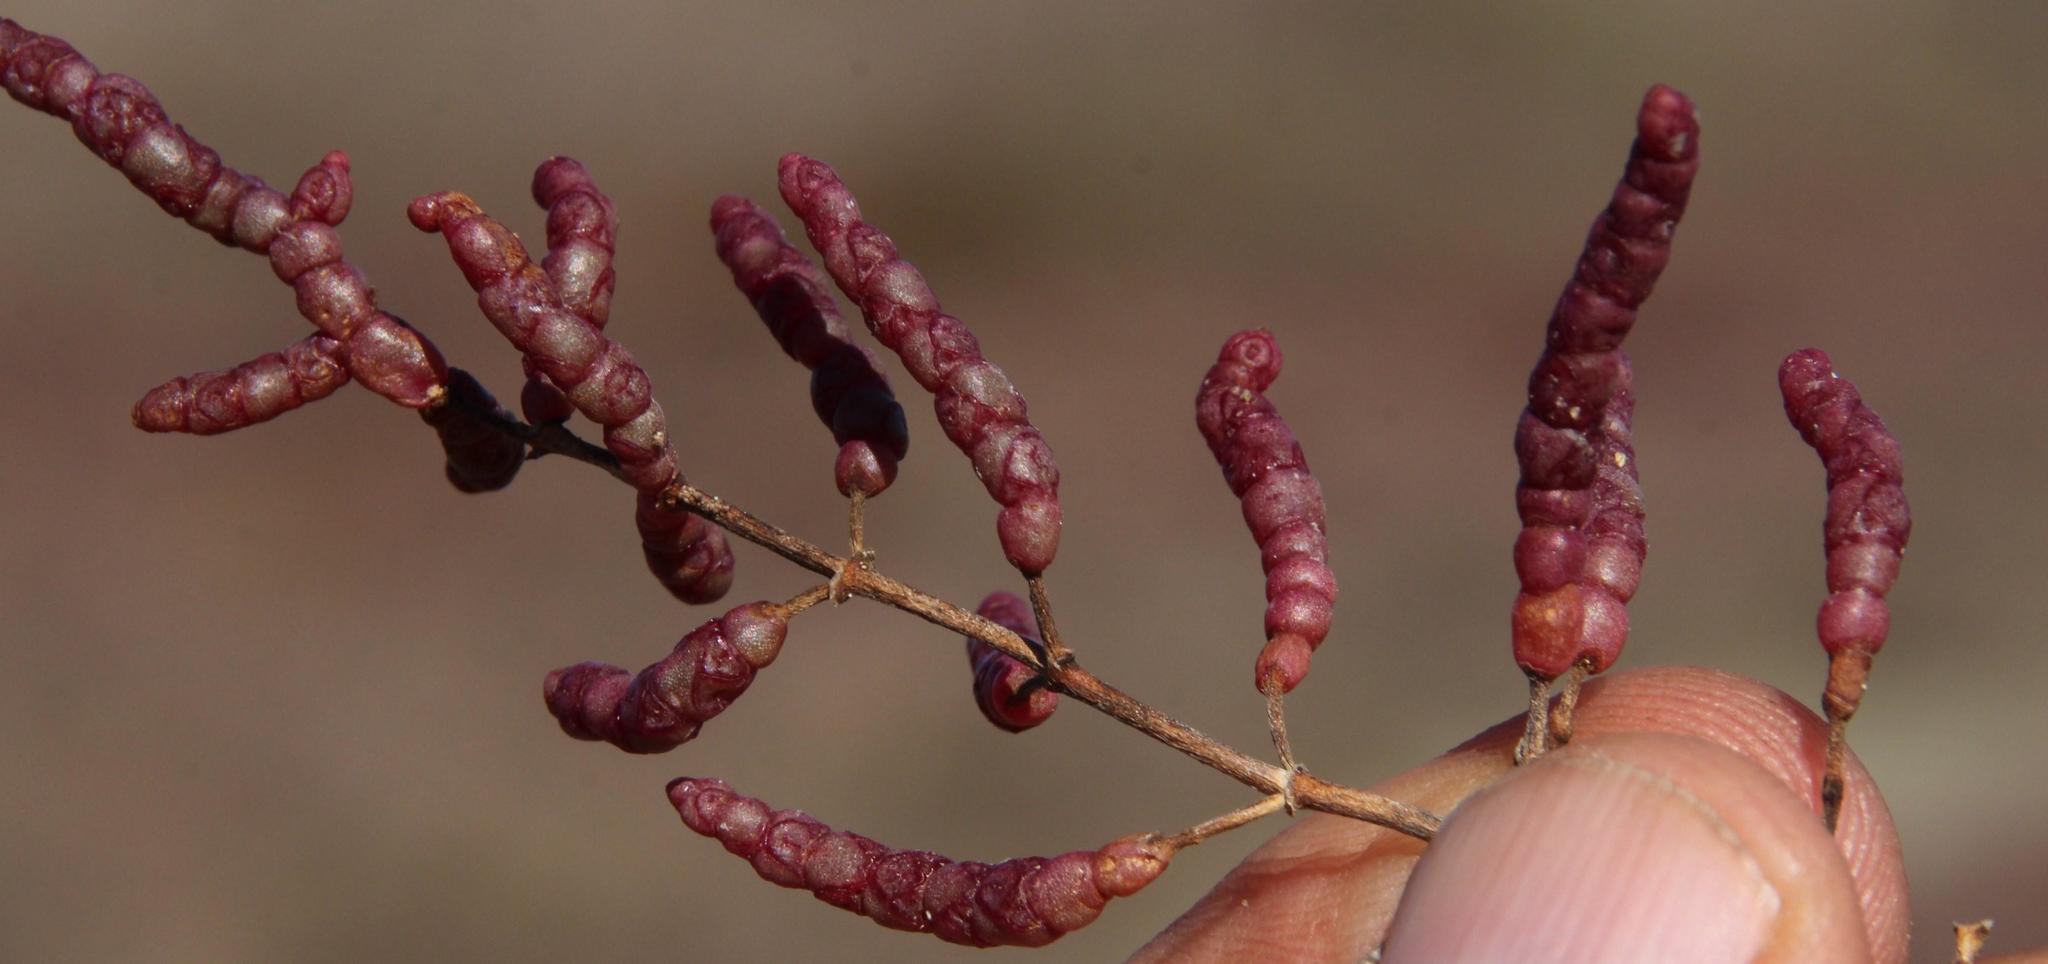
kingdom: Plantae
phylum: Tracheophyta
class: Magnoliopsida
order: Caryophyllales
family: Amaranthaceae
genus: Salicornia
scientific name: Salicornia meyeriana
